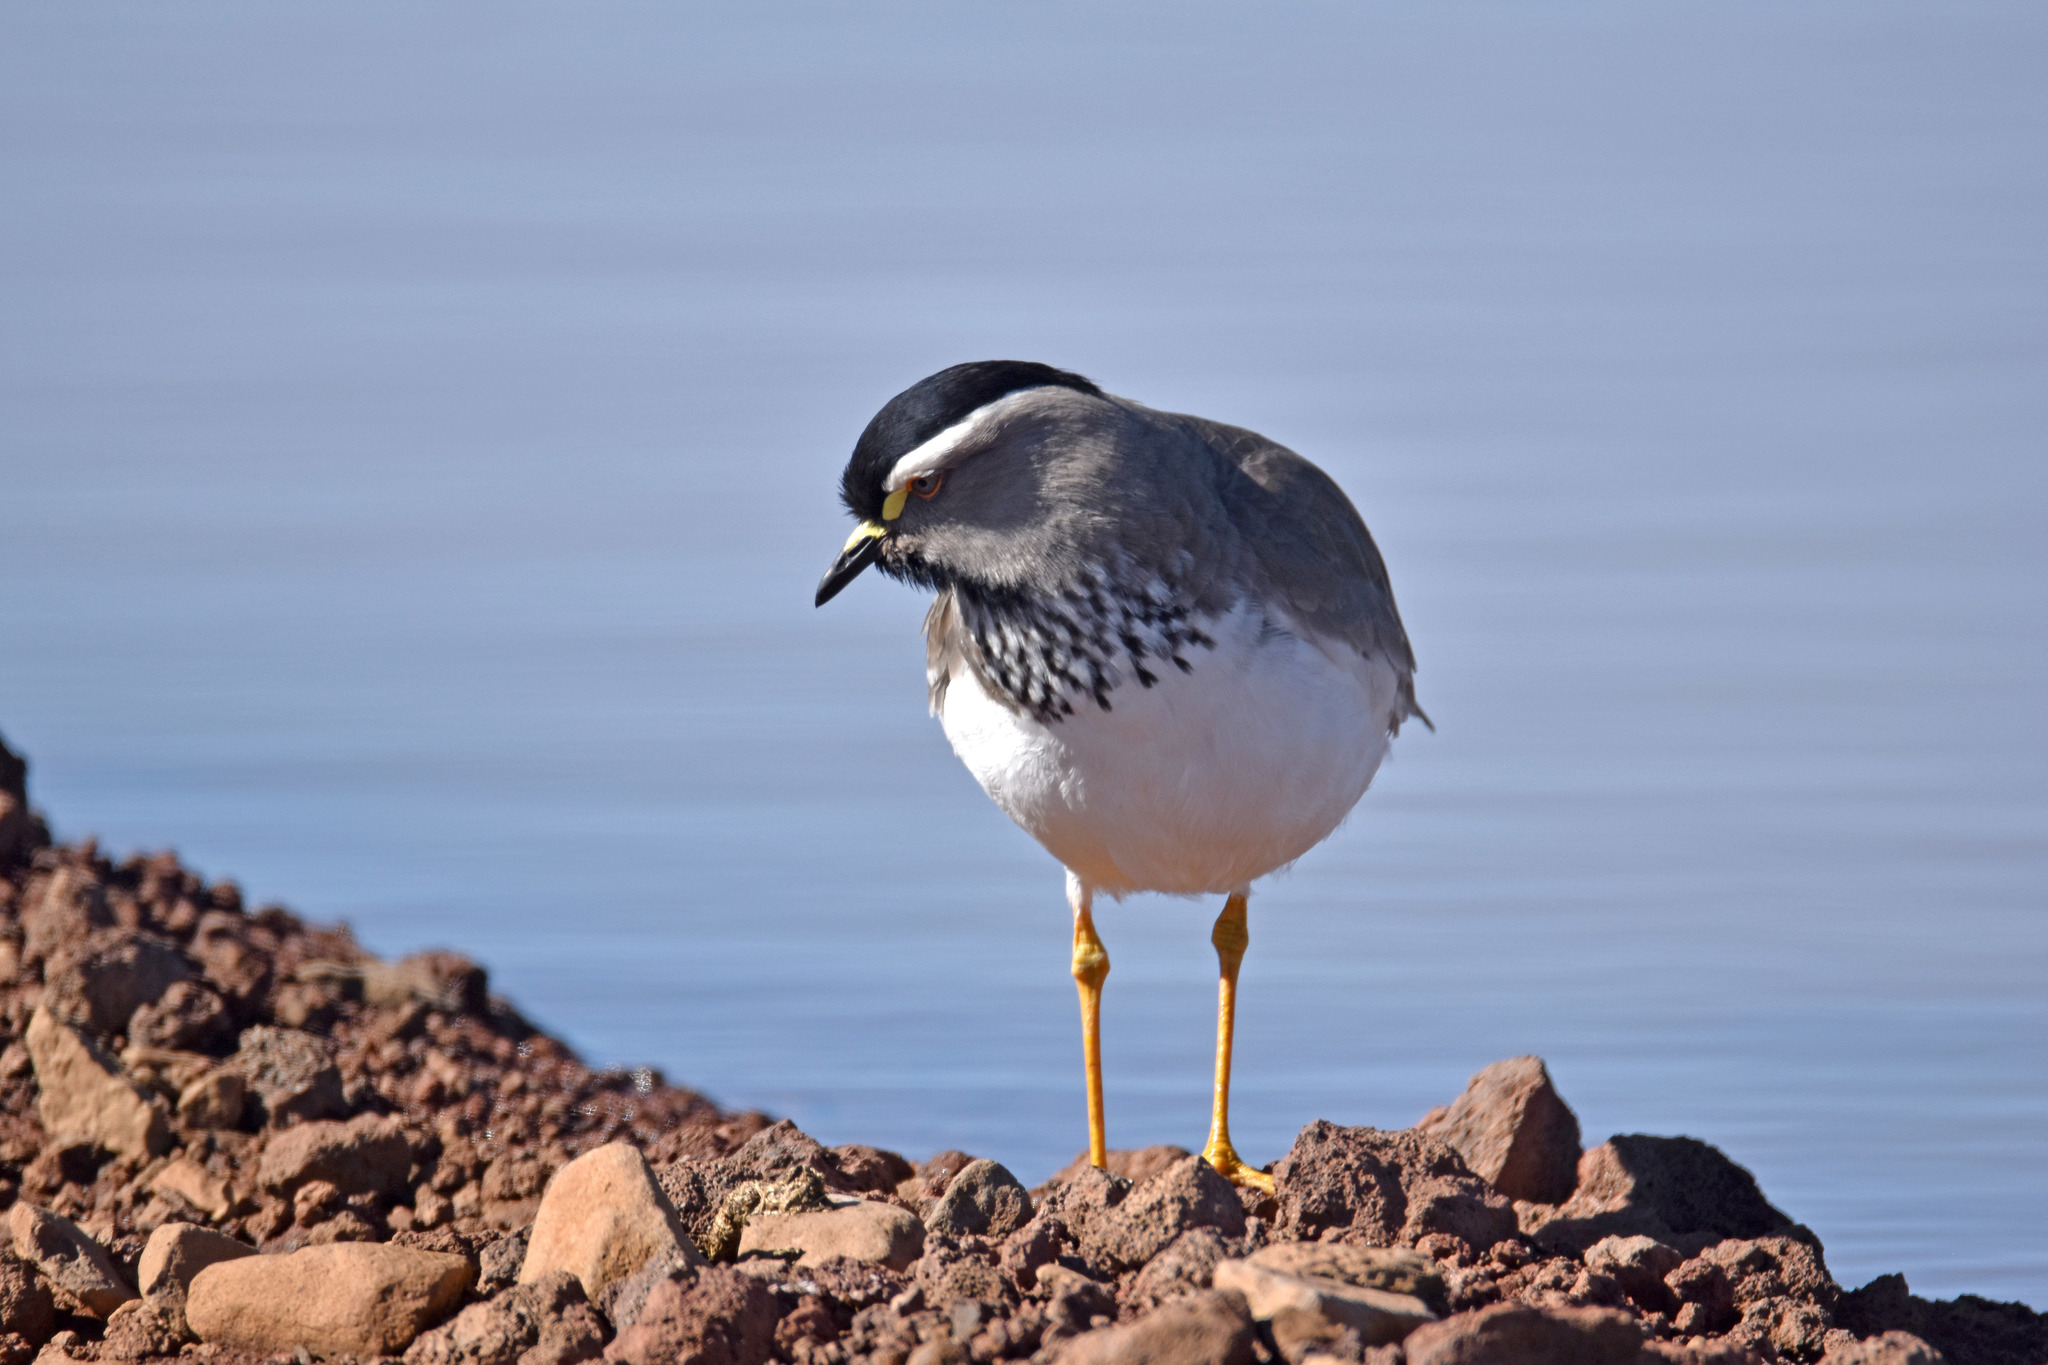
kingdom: Animalia
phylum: Chordata
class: Aves
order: Charadriiformes
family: Charadriidae
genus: Vanellus
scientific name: Vanellus melanocephalus
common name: Spot-breasted lapwing
